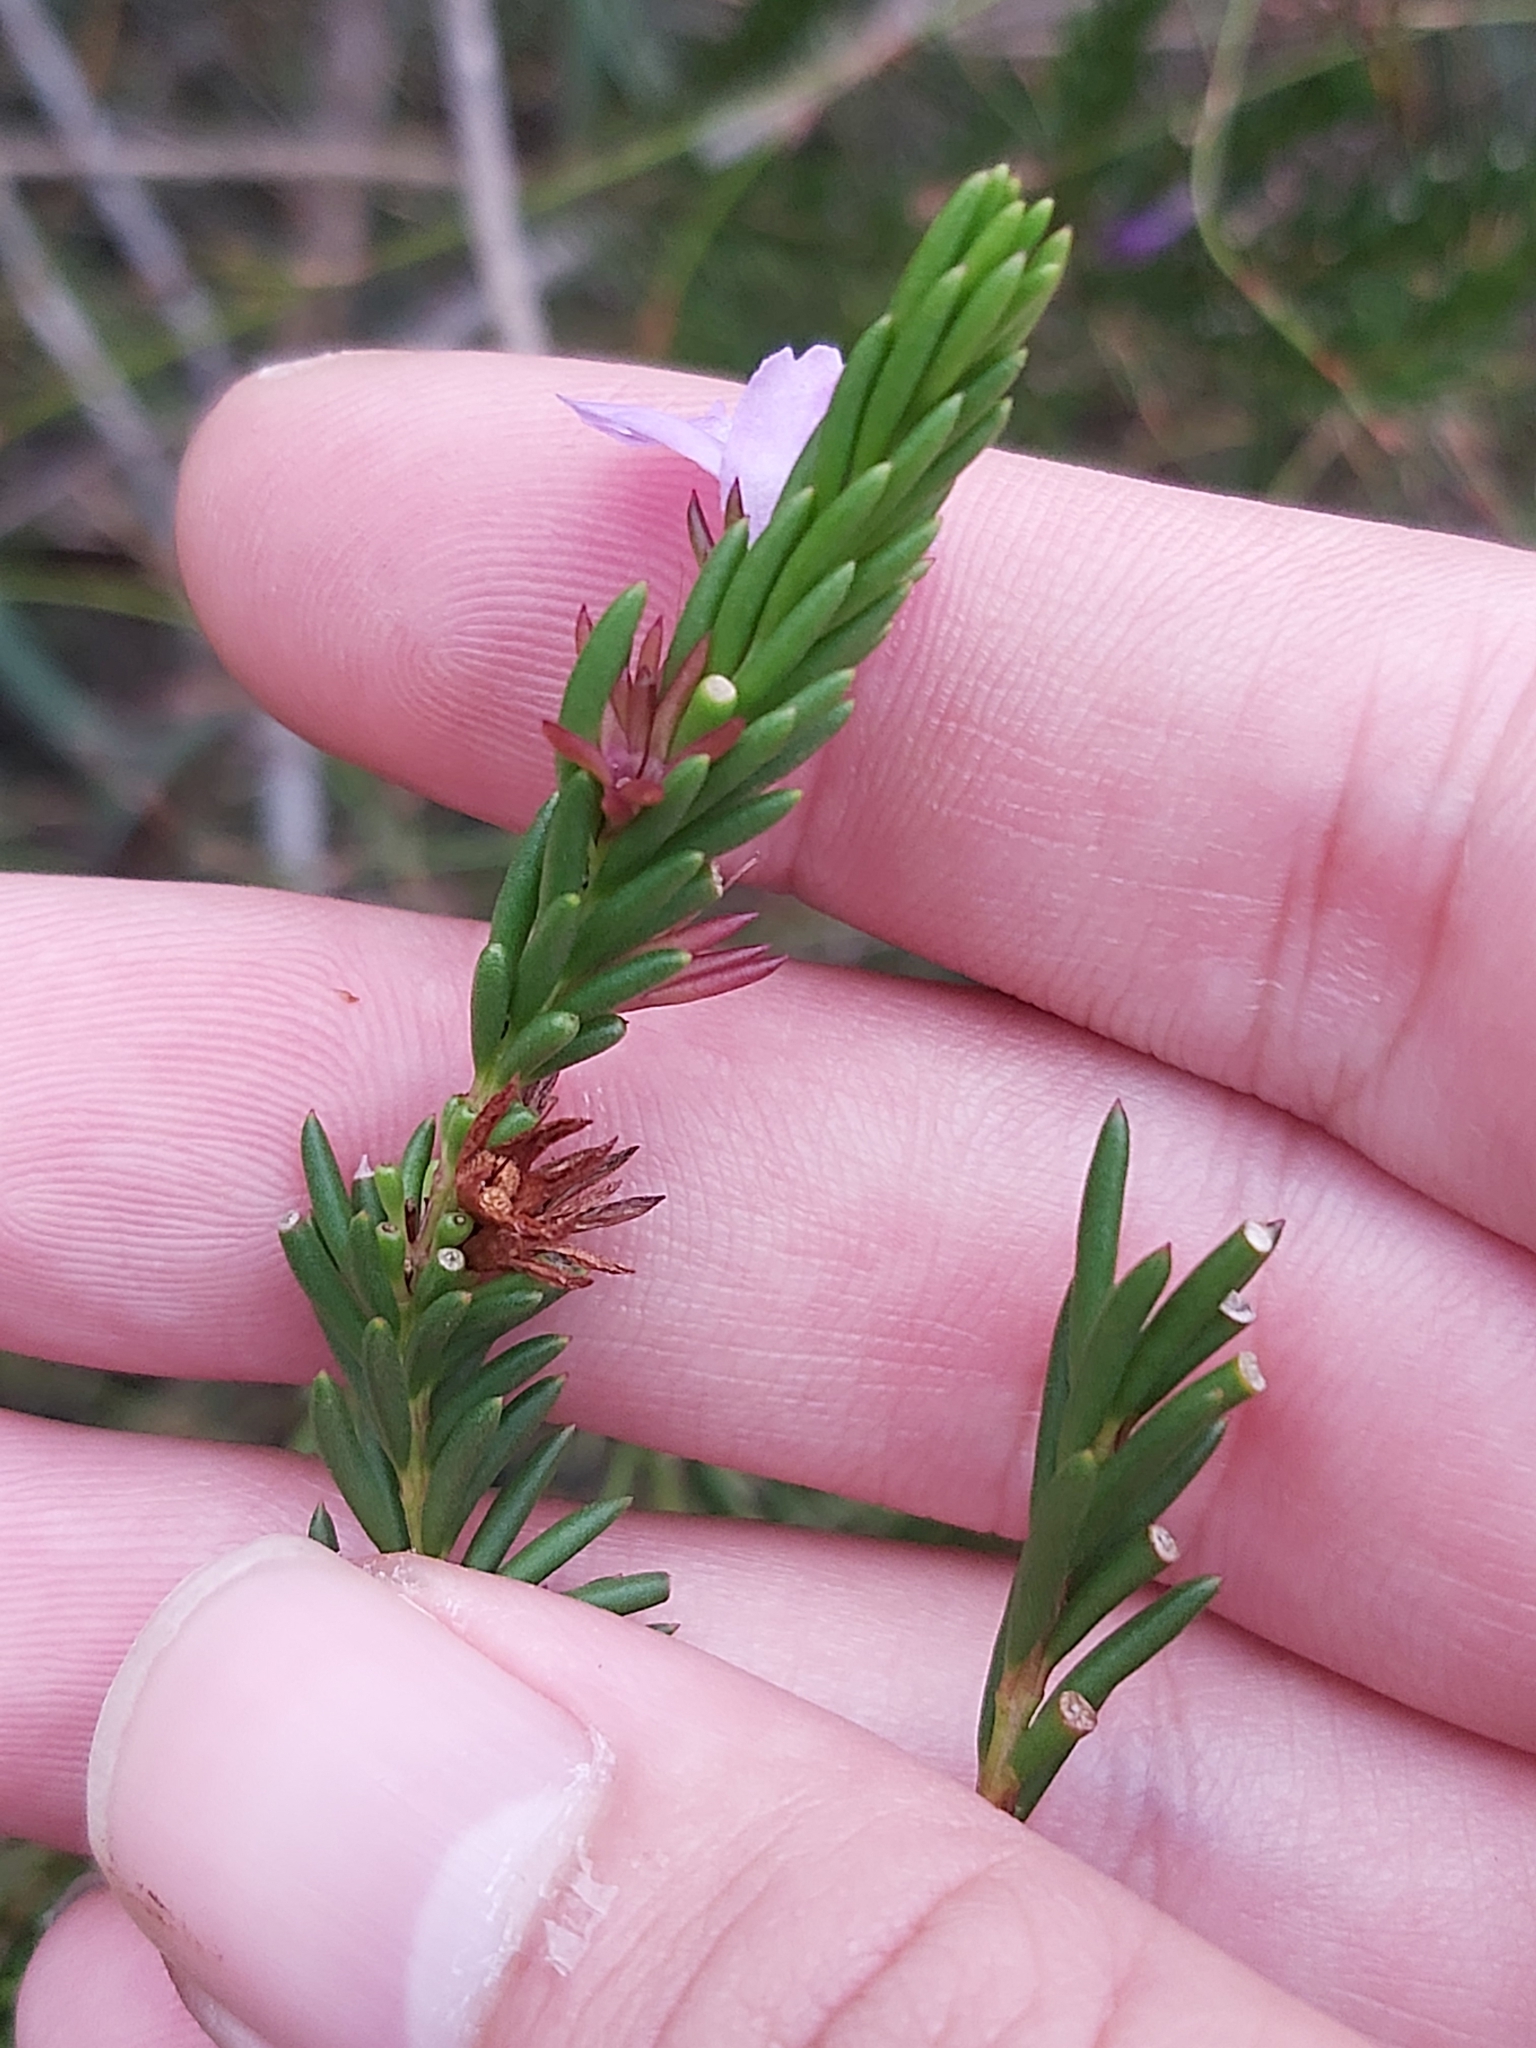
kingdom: Plantae
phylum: Tracheophyta
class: Magnoliopsida
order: Lamiales
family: Lamiaceae
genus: Hemigenia
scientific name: Hemigenia purpurea
